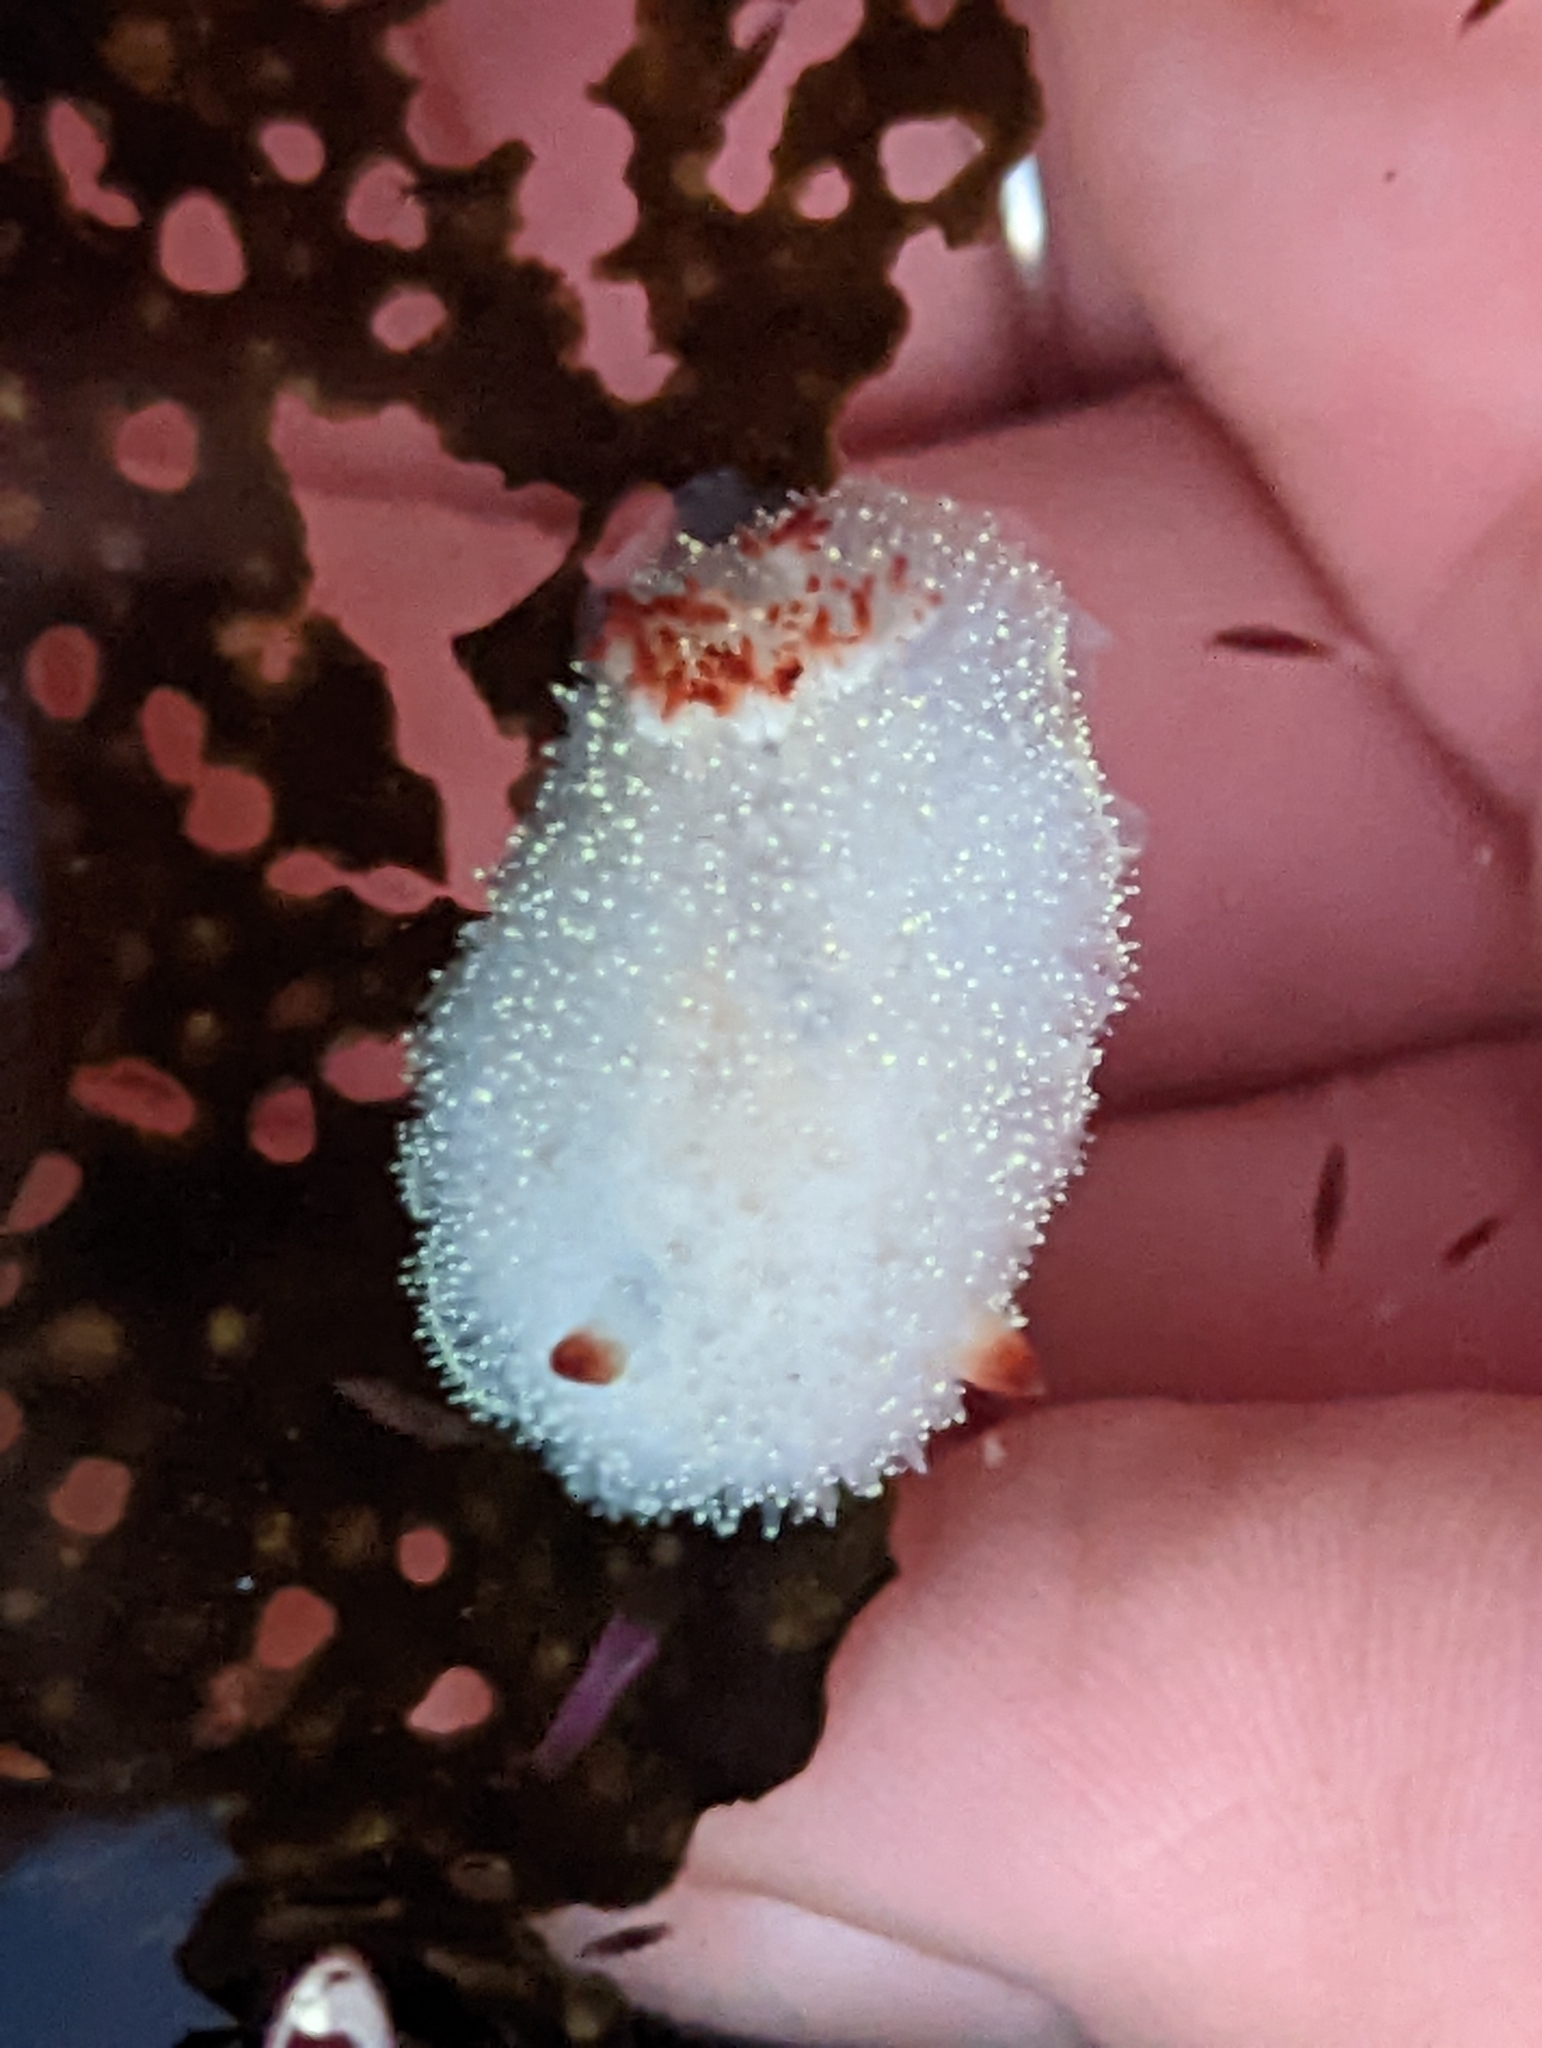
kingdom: Animalia
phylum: Mollusca
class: Gastropoda
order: Nudibranchia
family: Onchidorididae
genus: Acanthodoris
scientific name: Acanthodoris nanaimoensis
